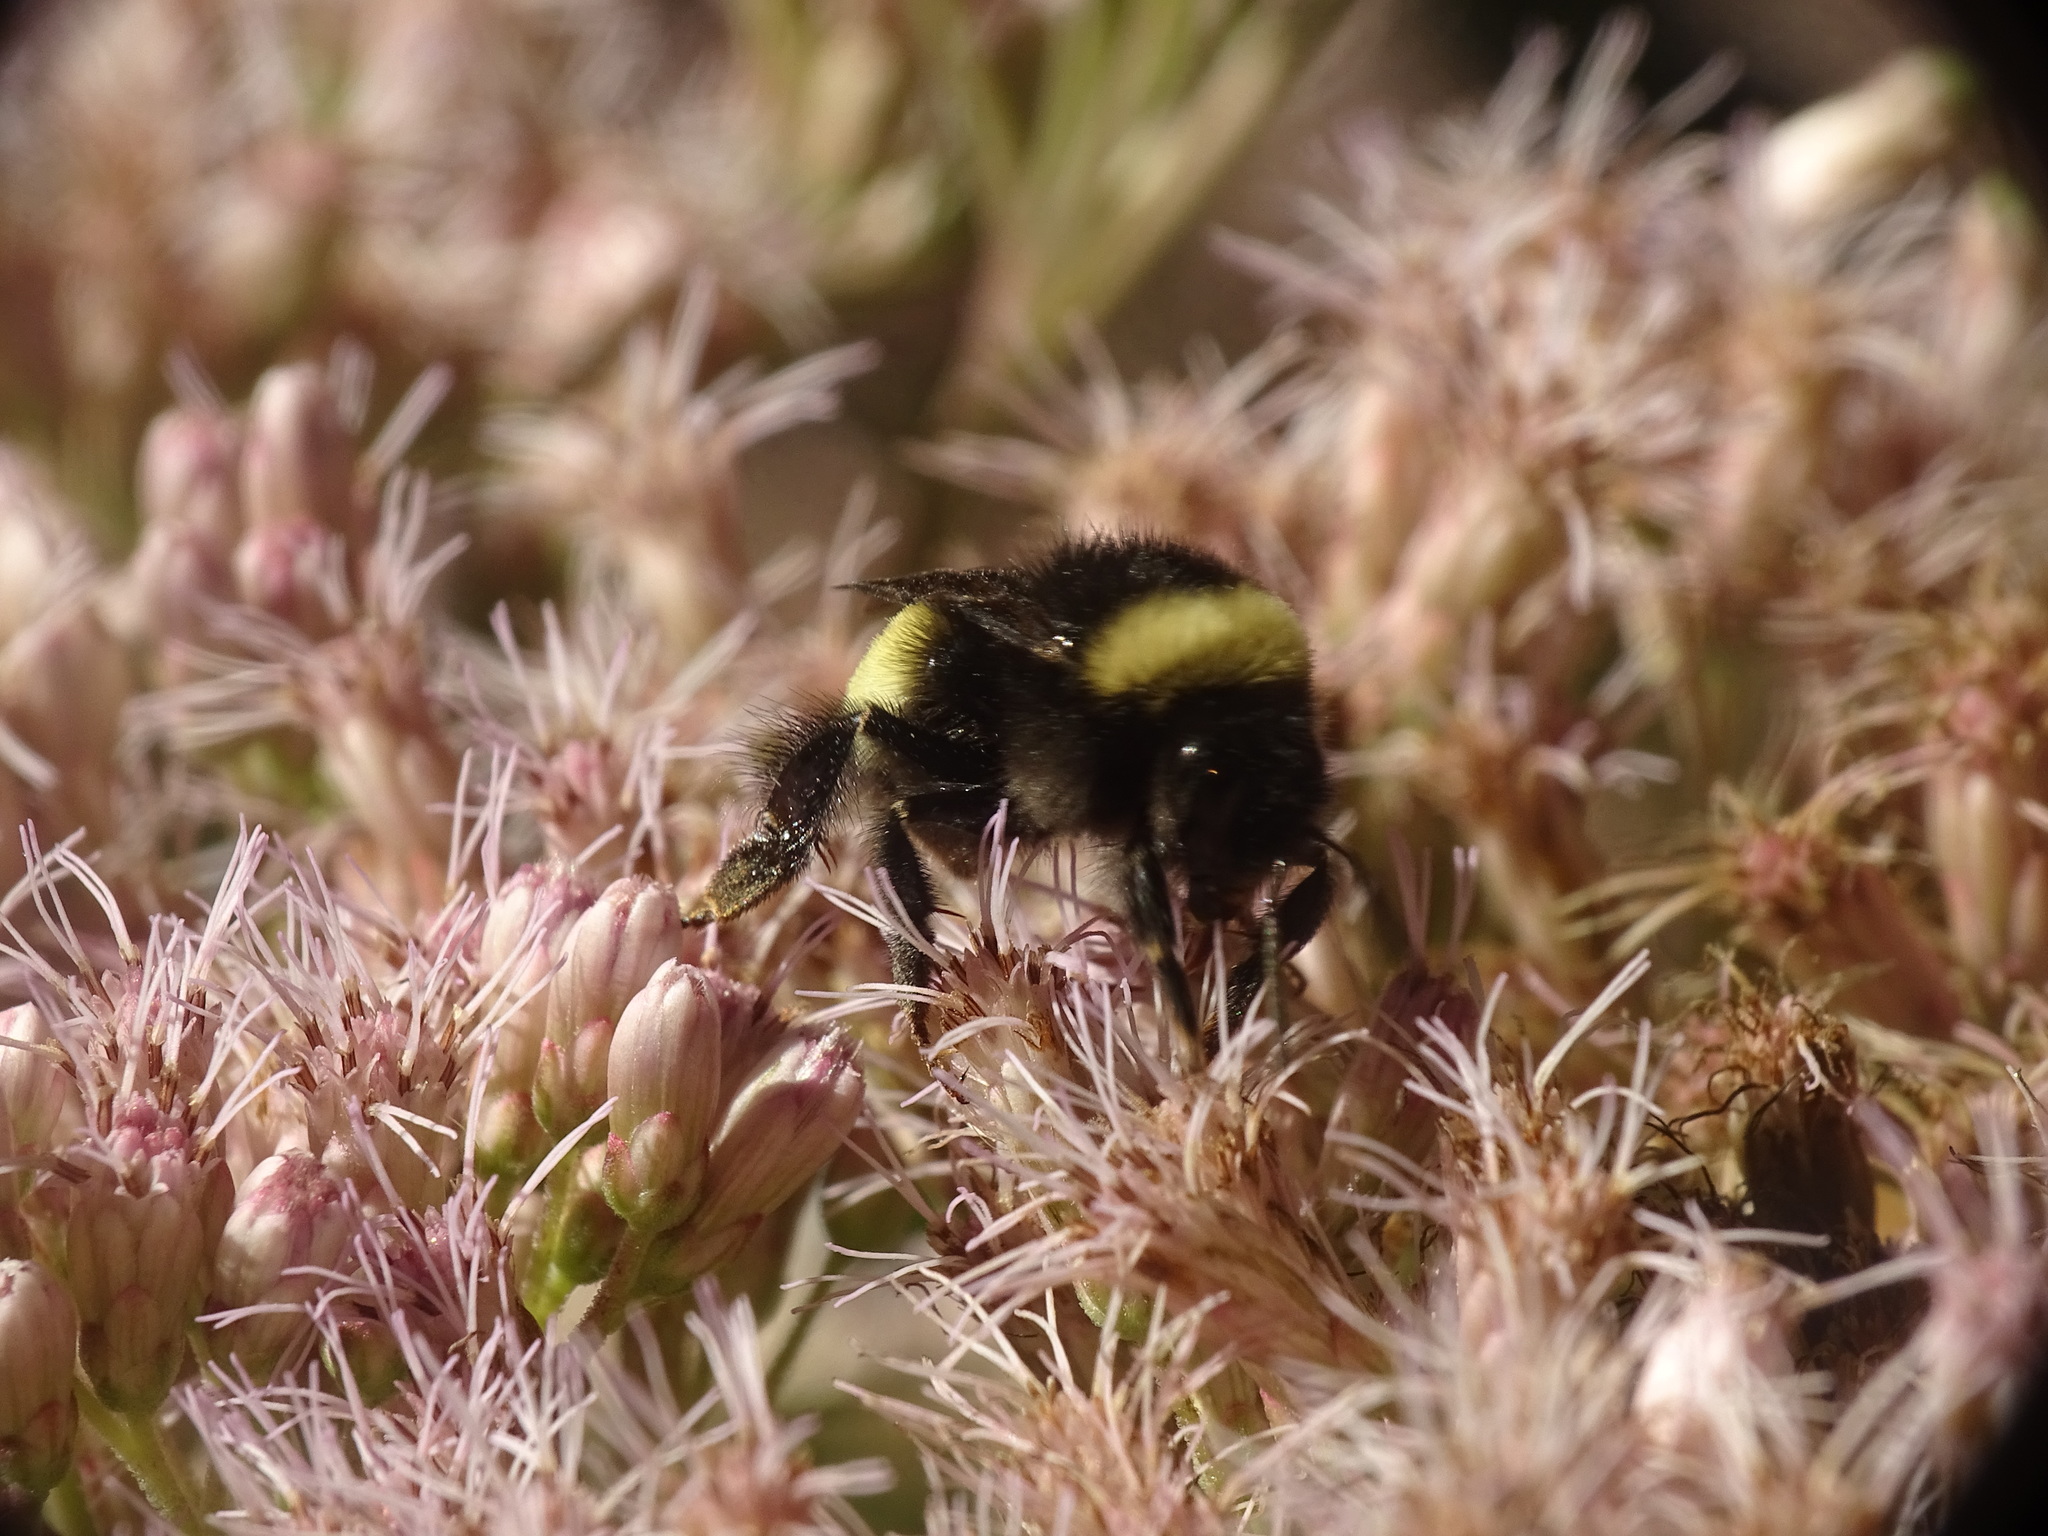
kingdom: Animalia
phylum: Arthropoda
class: Insecta
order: Hymenoptera
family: Apidae
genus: Bombus
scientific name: Bombus terricola
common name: Yellow-banded bumble bee
